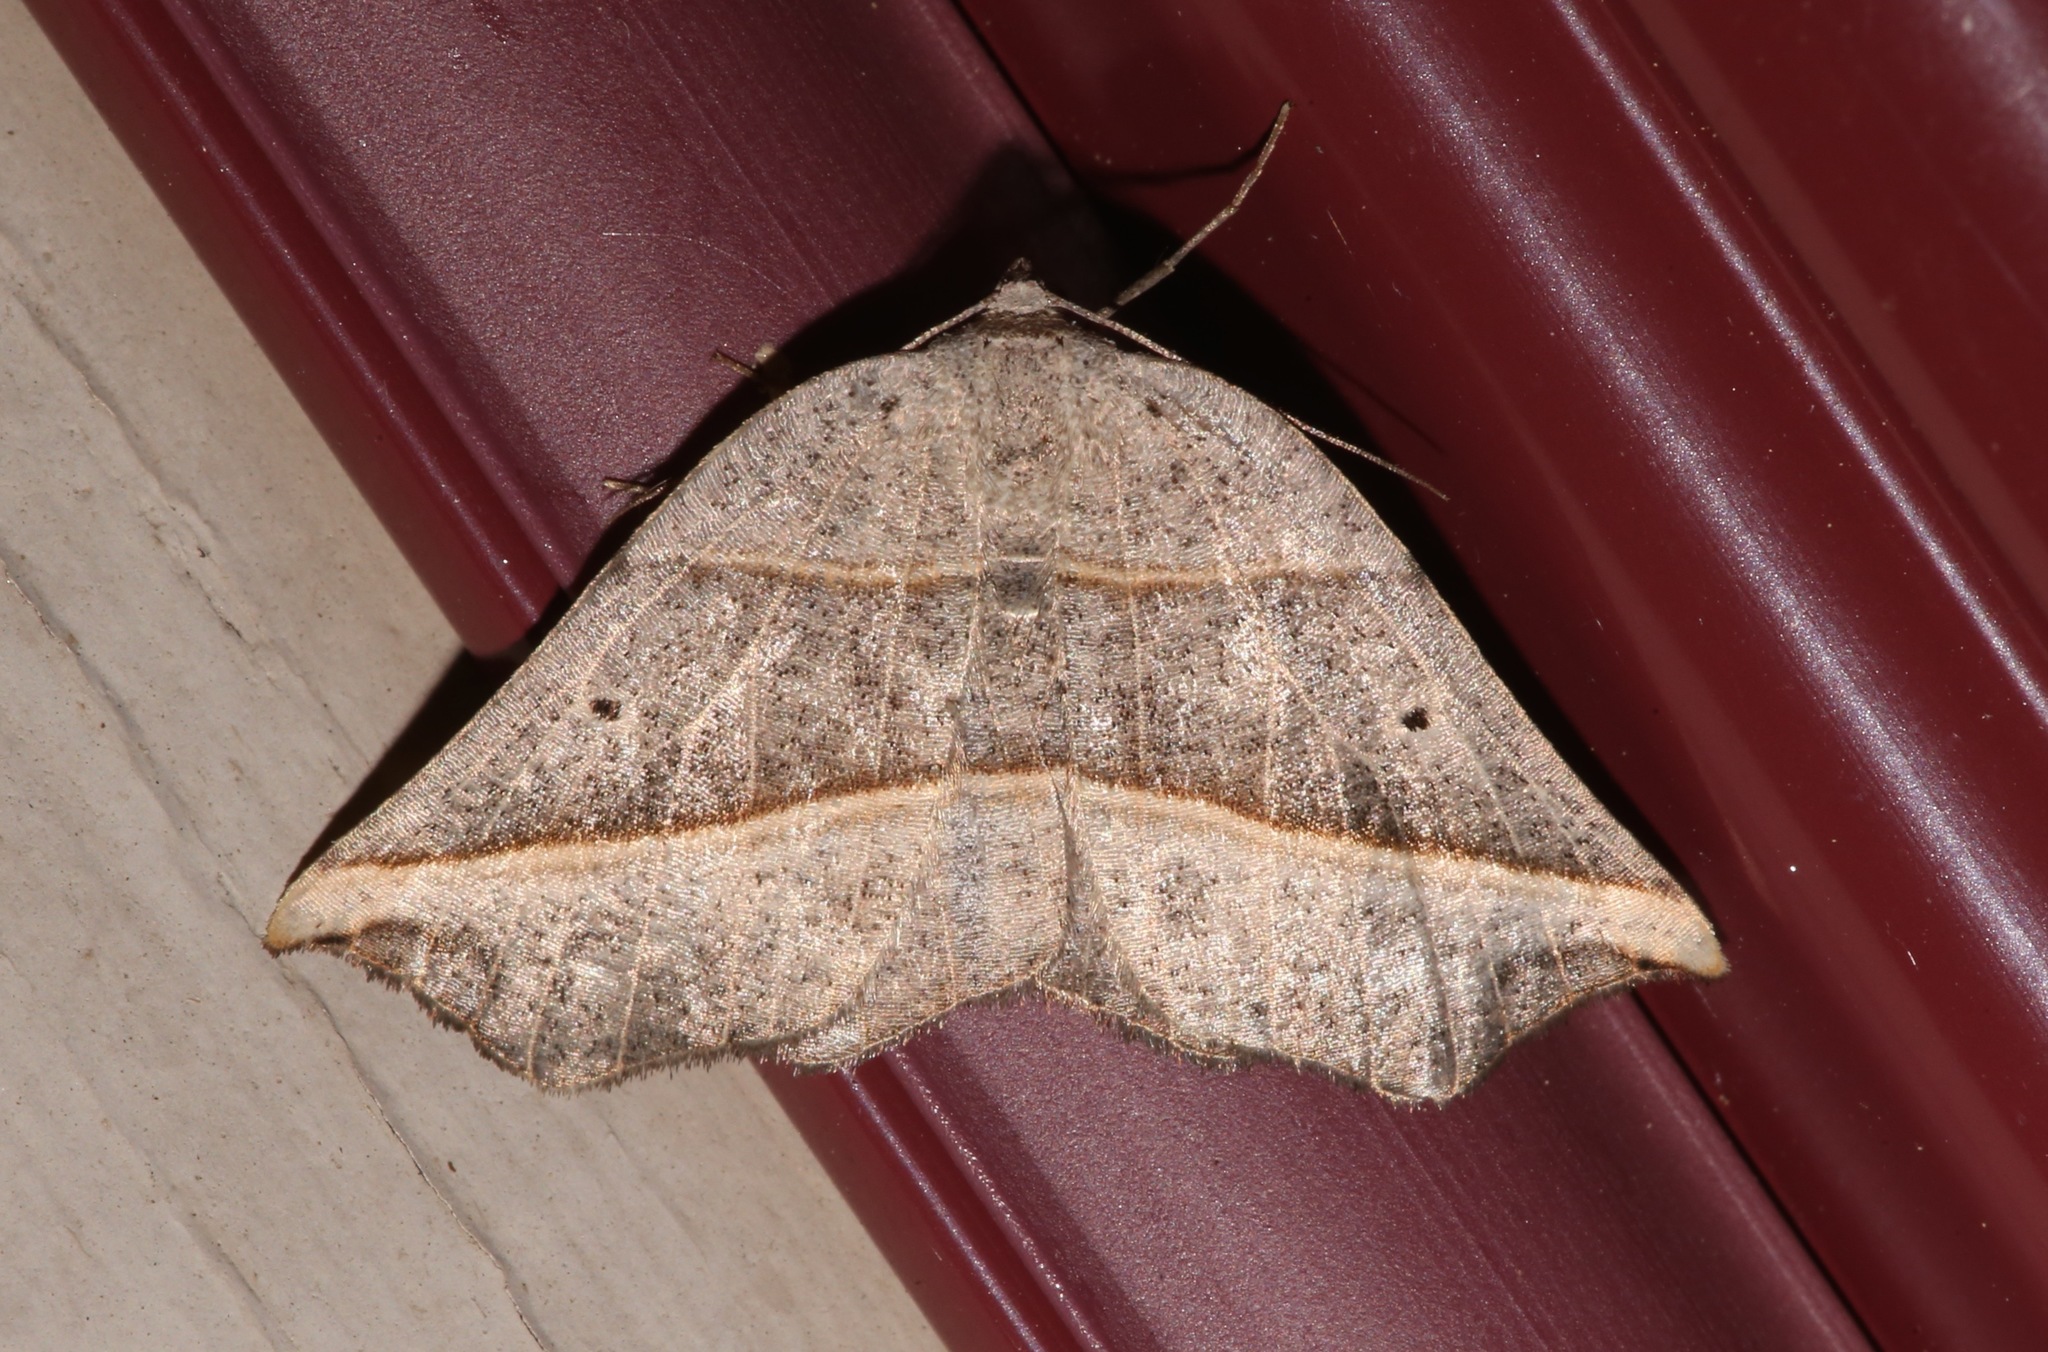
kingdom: Animalia
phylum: Arthropoda
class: Insecta
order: Lepidoptera
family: Geometridae
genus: Metanema
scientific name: Metanema determinata
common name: Dark metanema
